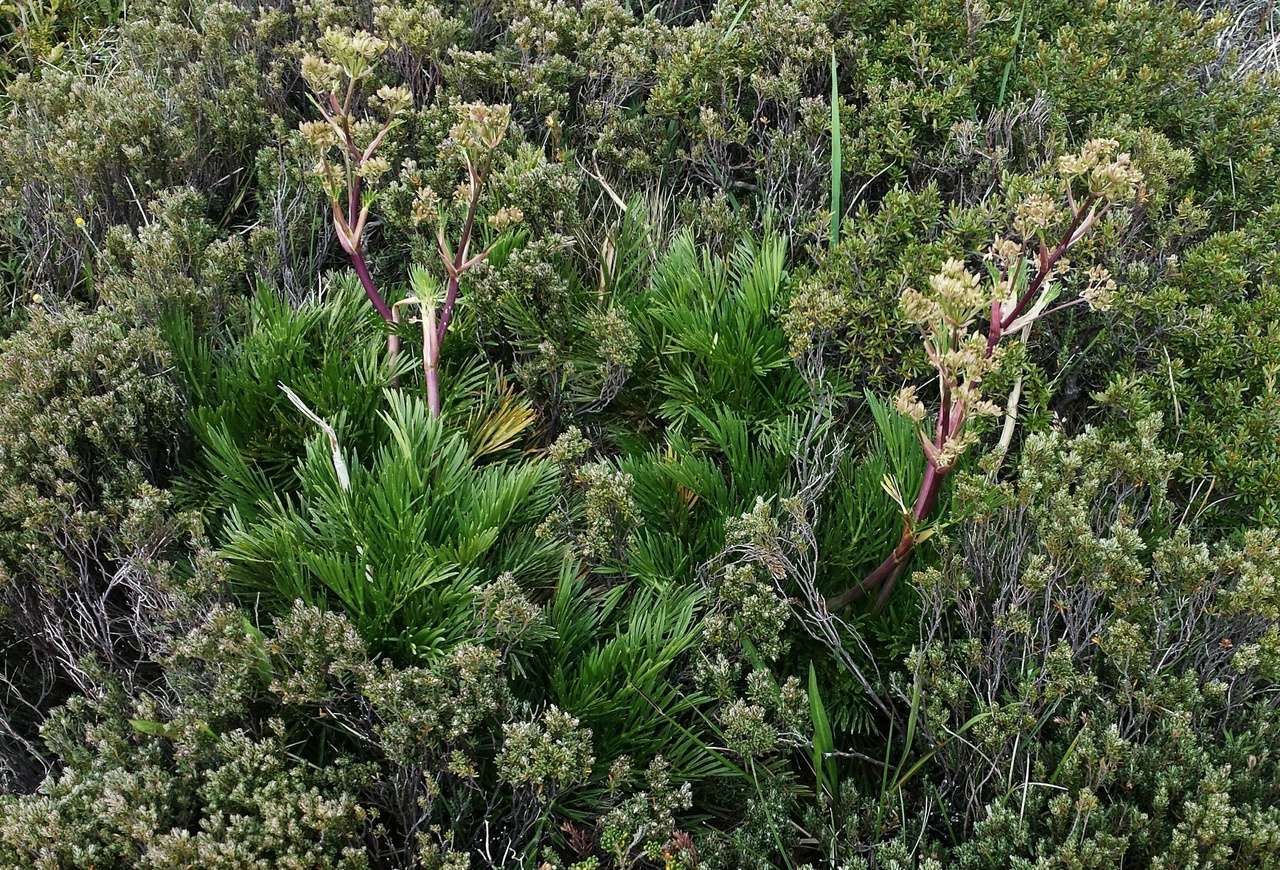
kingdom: Plantae
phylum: Tracheophyta
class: Magnoliopsida
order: Apiales
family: Apiaceae
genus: Aciphylla
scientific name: Aciphylla glacialis
